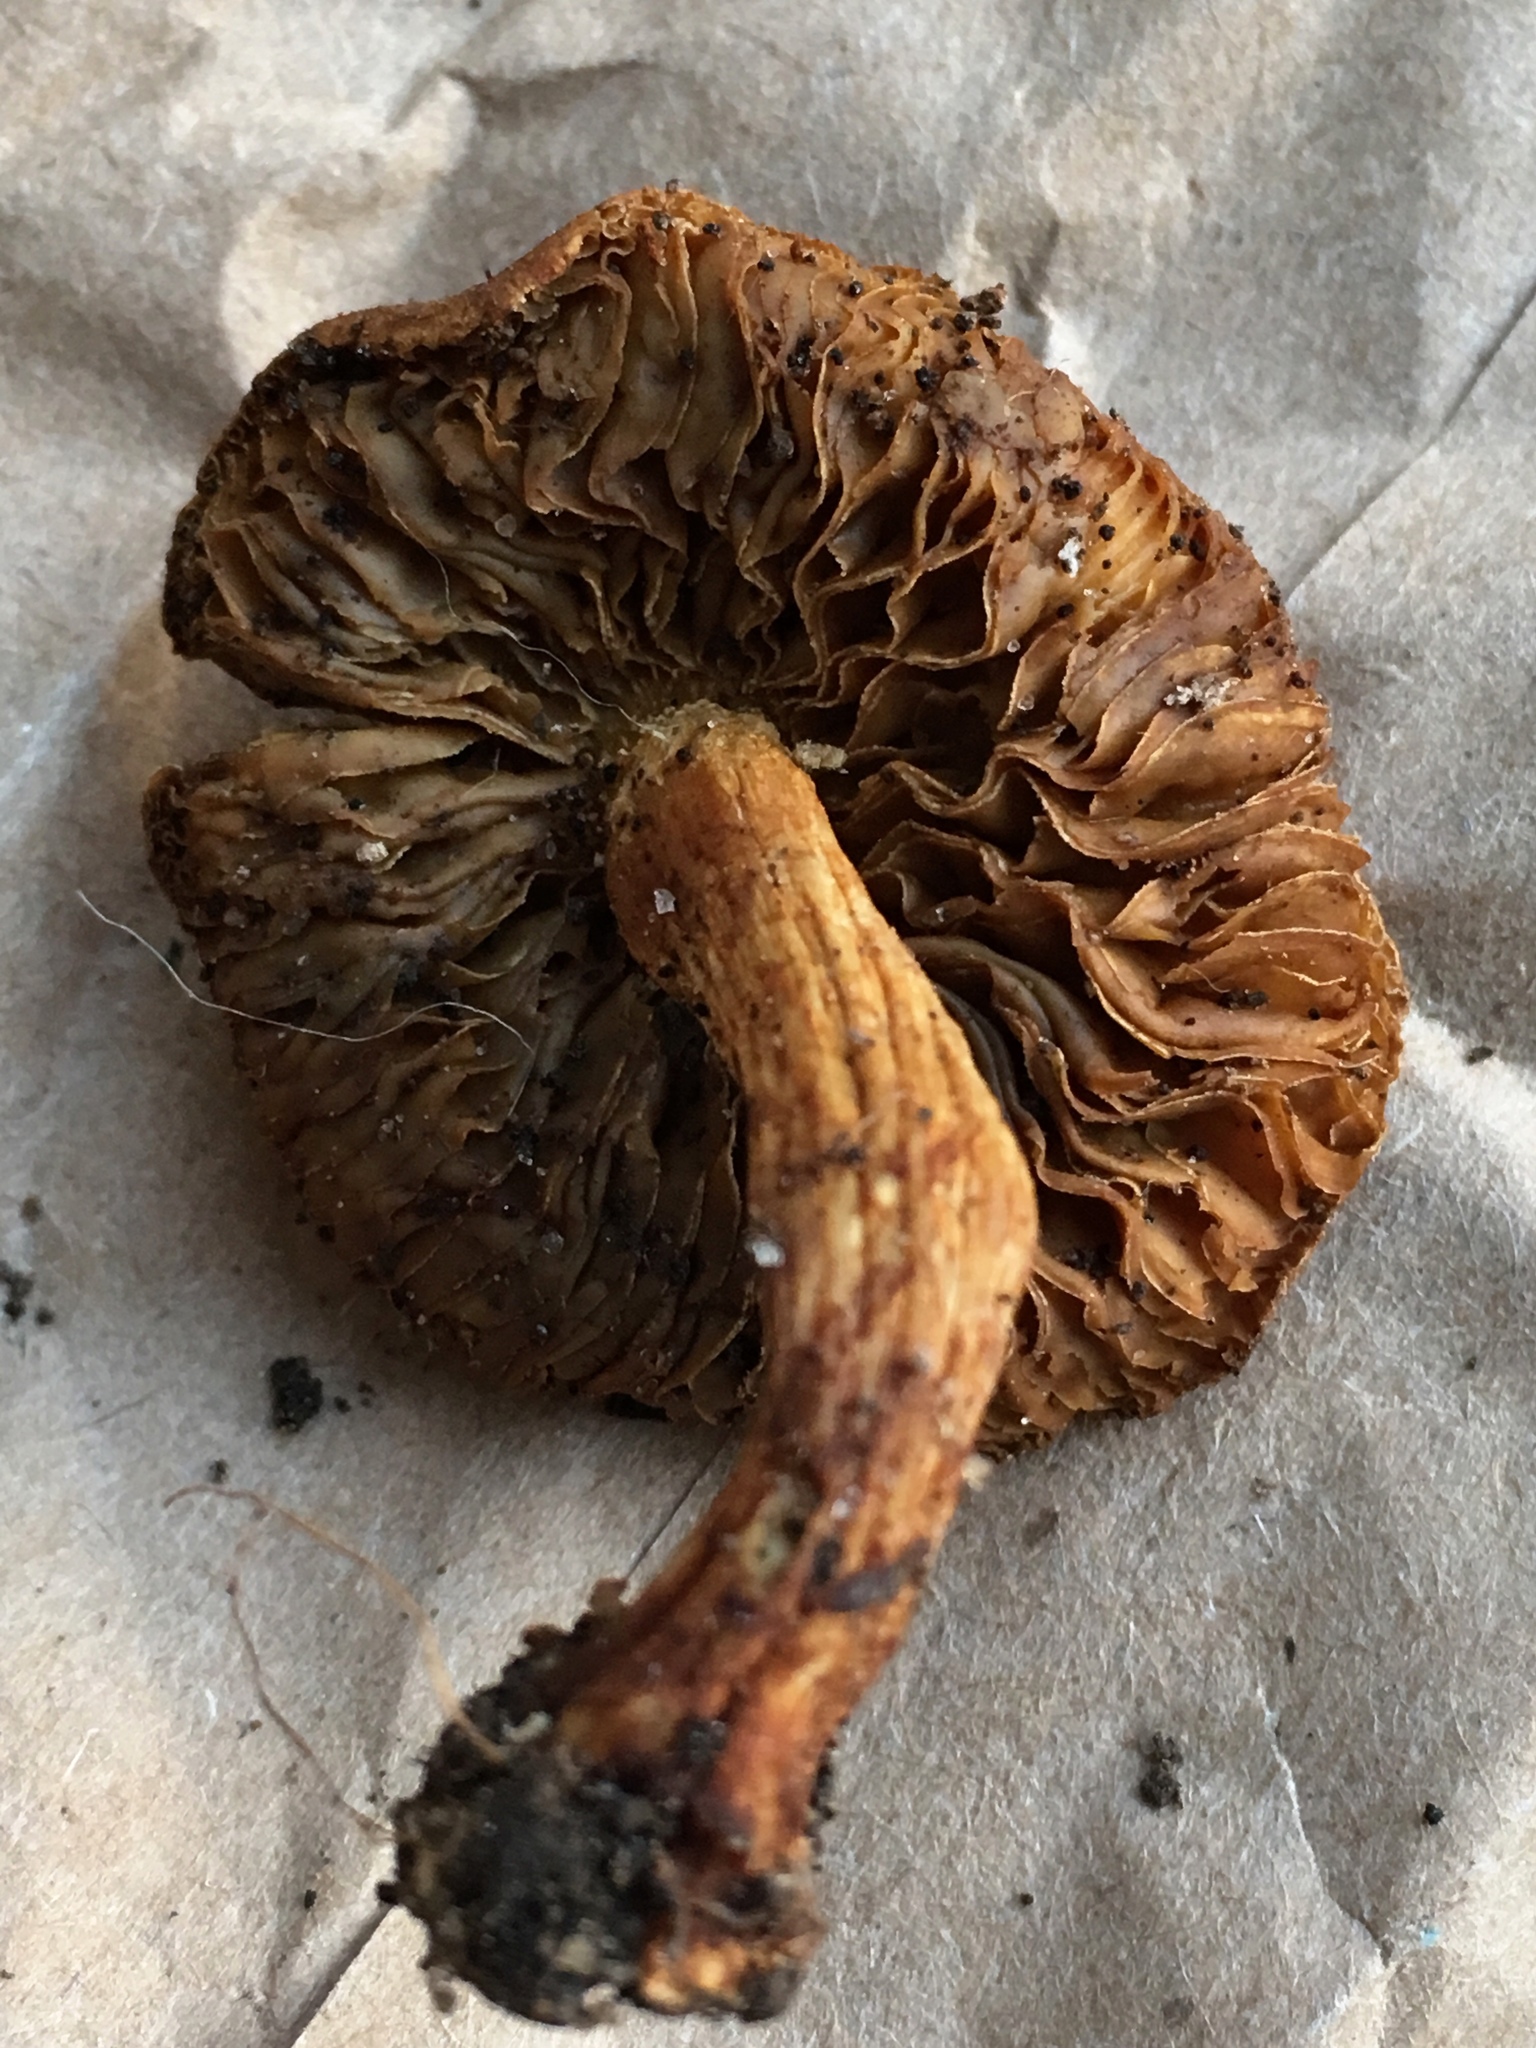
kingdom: Fungi
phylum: Basidiomycota
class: Agaricomycetes
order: Agaricales
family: Inocybaceae
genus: Mallocybe
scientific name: Mallocybe unicolor
